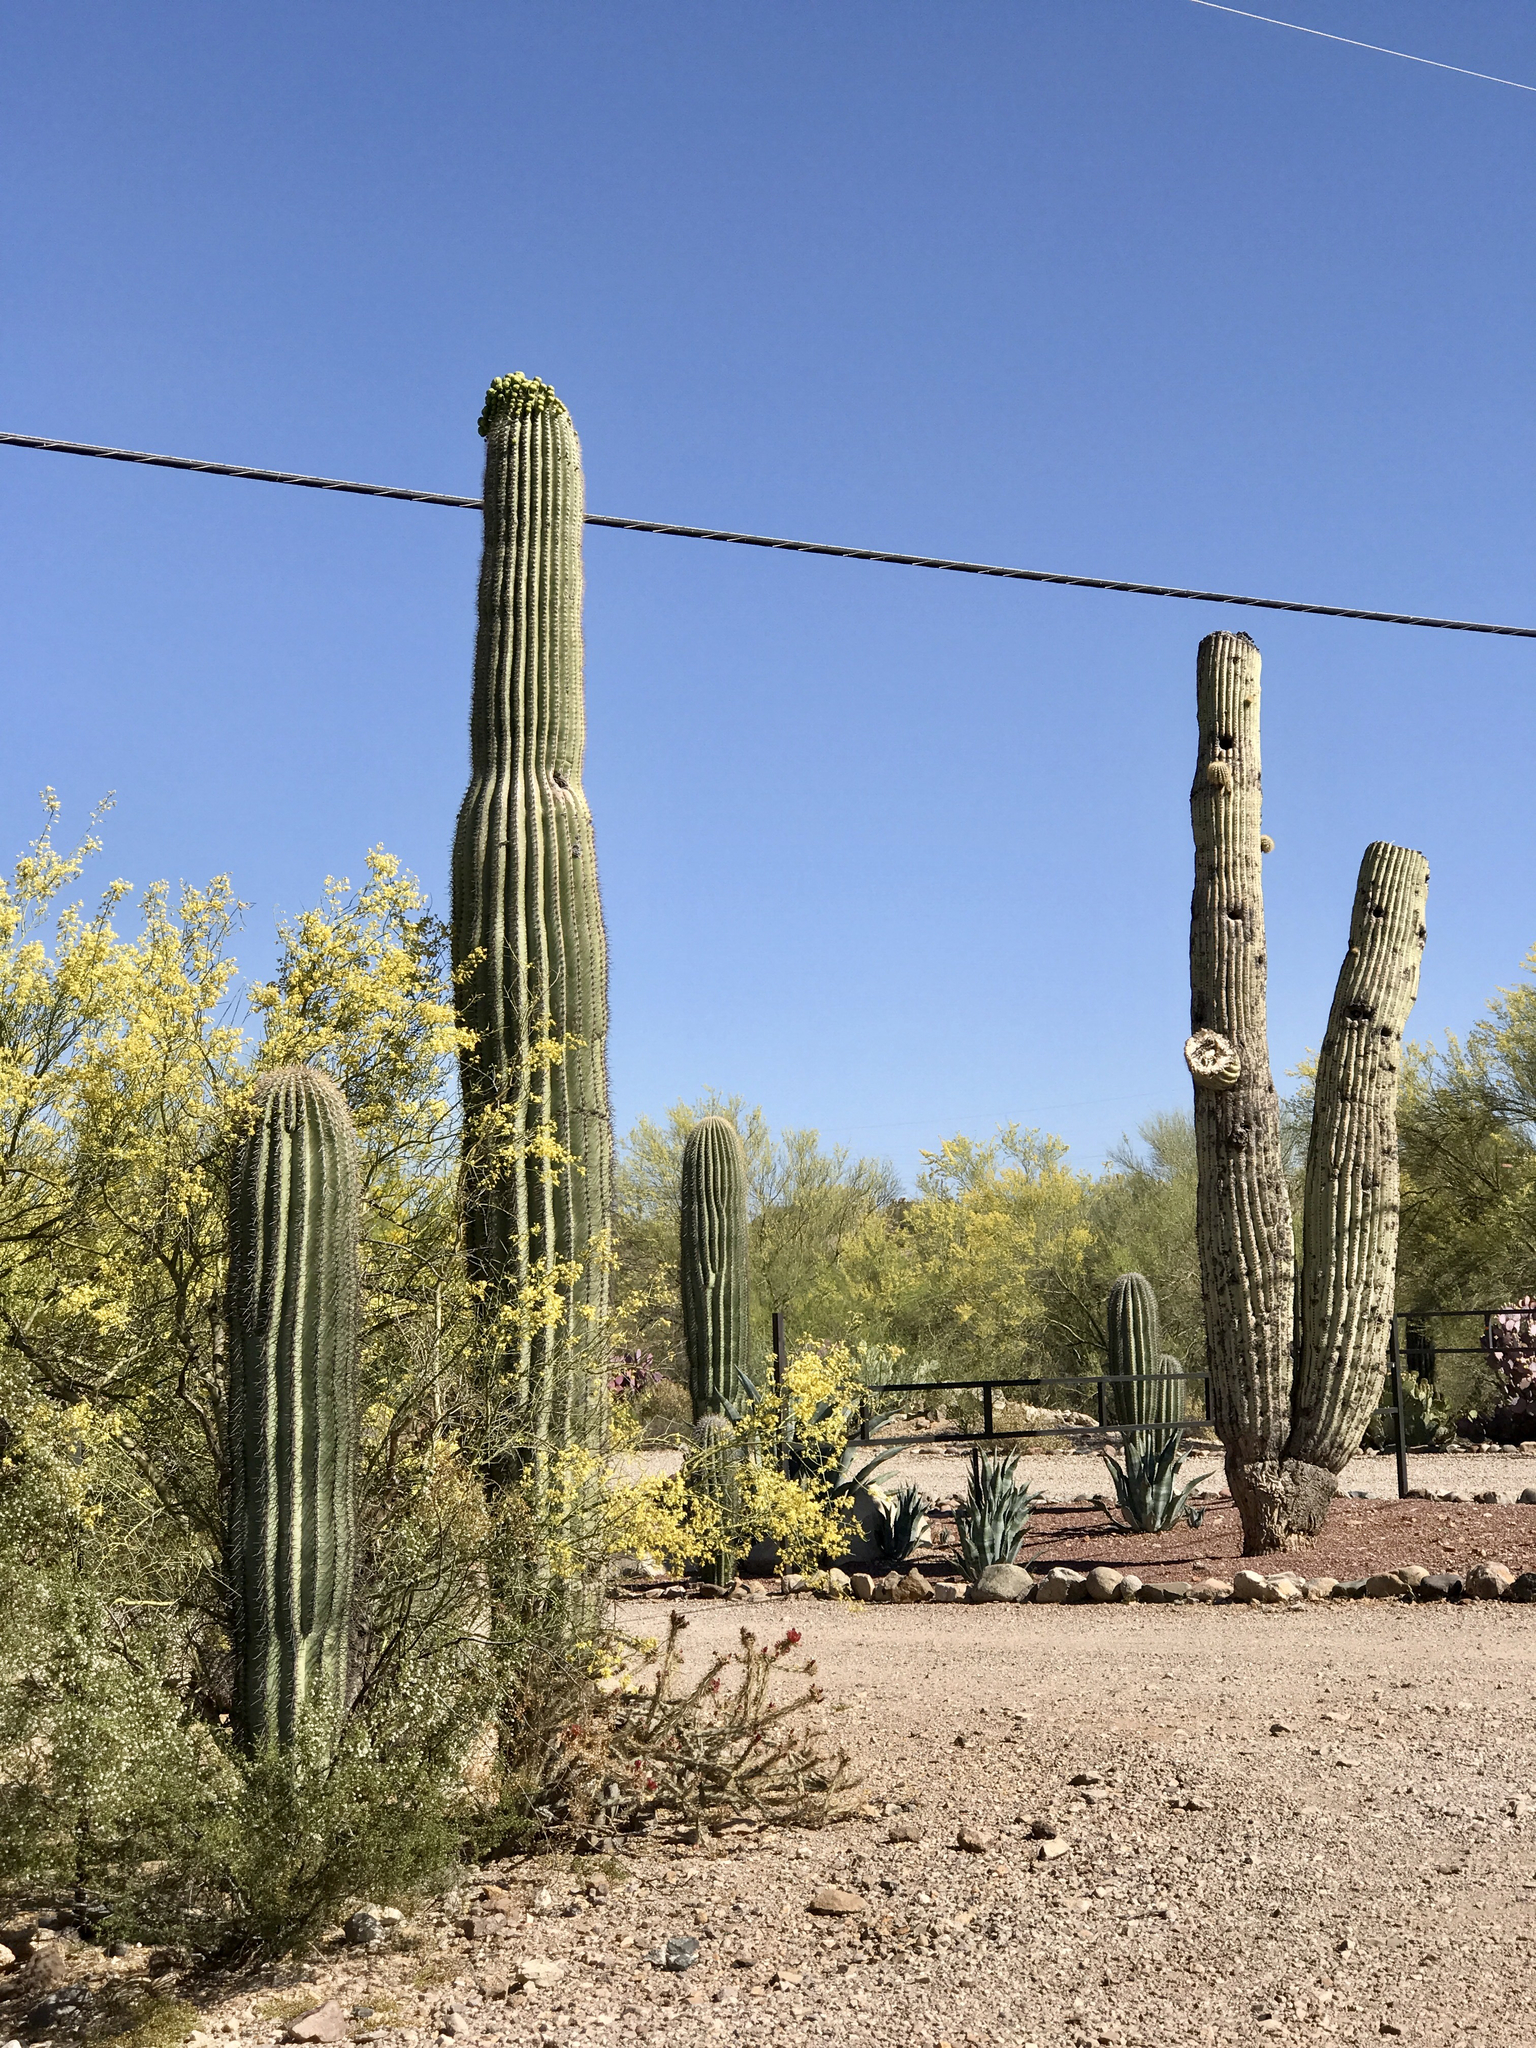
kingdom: Plantae
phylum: Tracheophyta
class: Magnoliopsida
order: Caryophyllales
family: Cactaceae
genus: Carnegiea
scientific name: Carnegiea gigantea
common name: Saguaro
